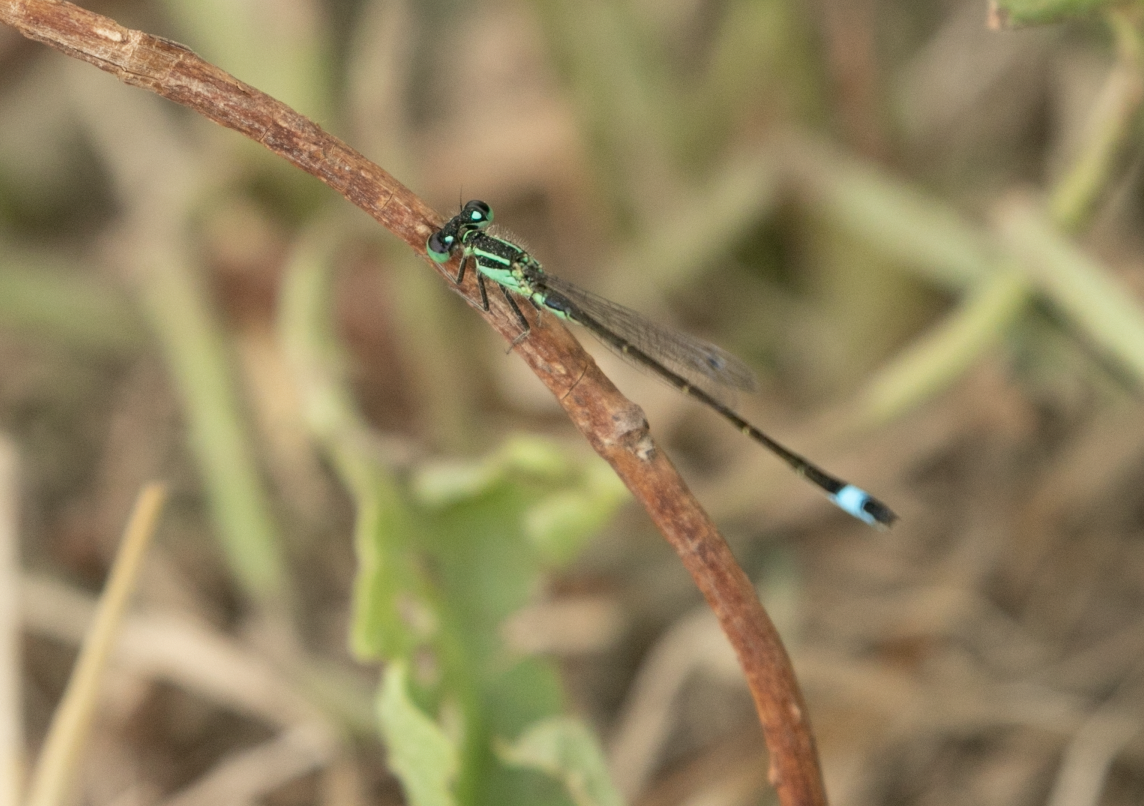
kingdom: Animalia
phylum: Arthropoda
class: Insecta
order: Odonata
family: Coenagrionidae
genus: Ischnura
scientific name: Ischnura elegans
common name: Blue-tailed damselfly
